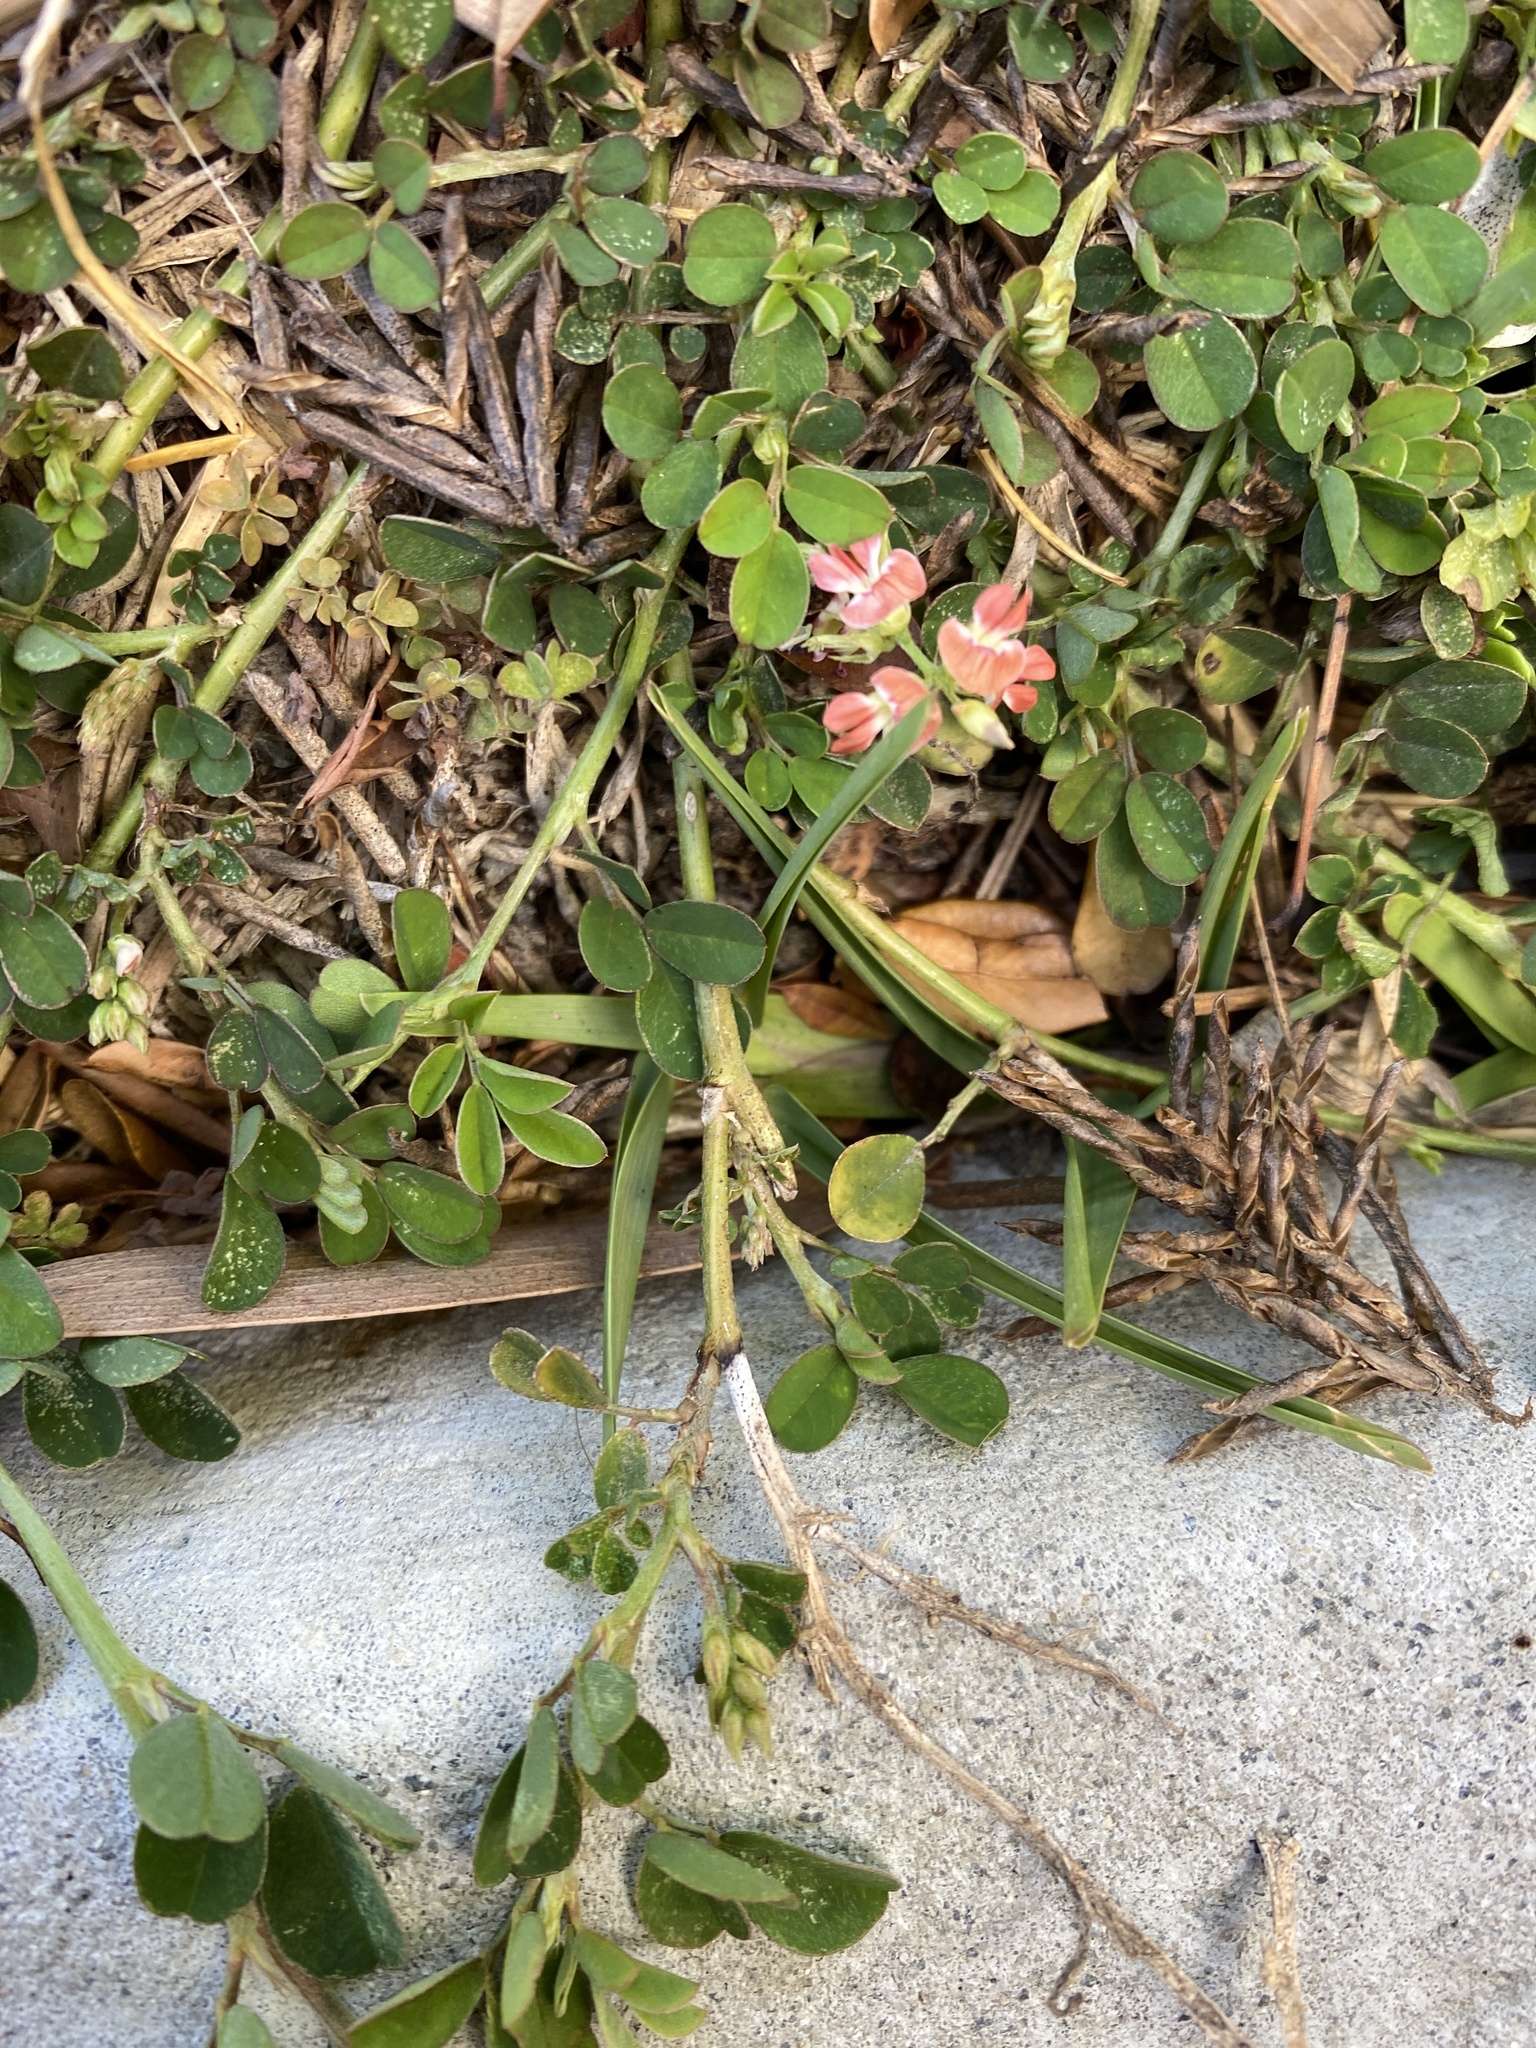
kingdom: Plantae
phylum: Tracheophyta
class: Magnoliopsida
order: Fabales
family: Fabaceae
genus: Indigofera
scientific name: Indigofera spicata
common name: Creeping indigo
